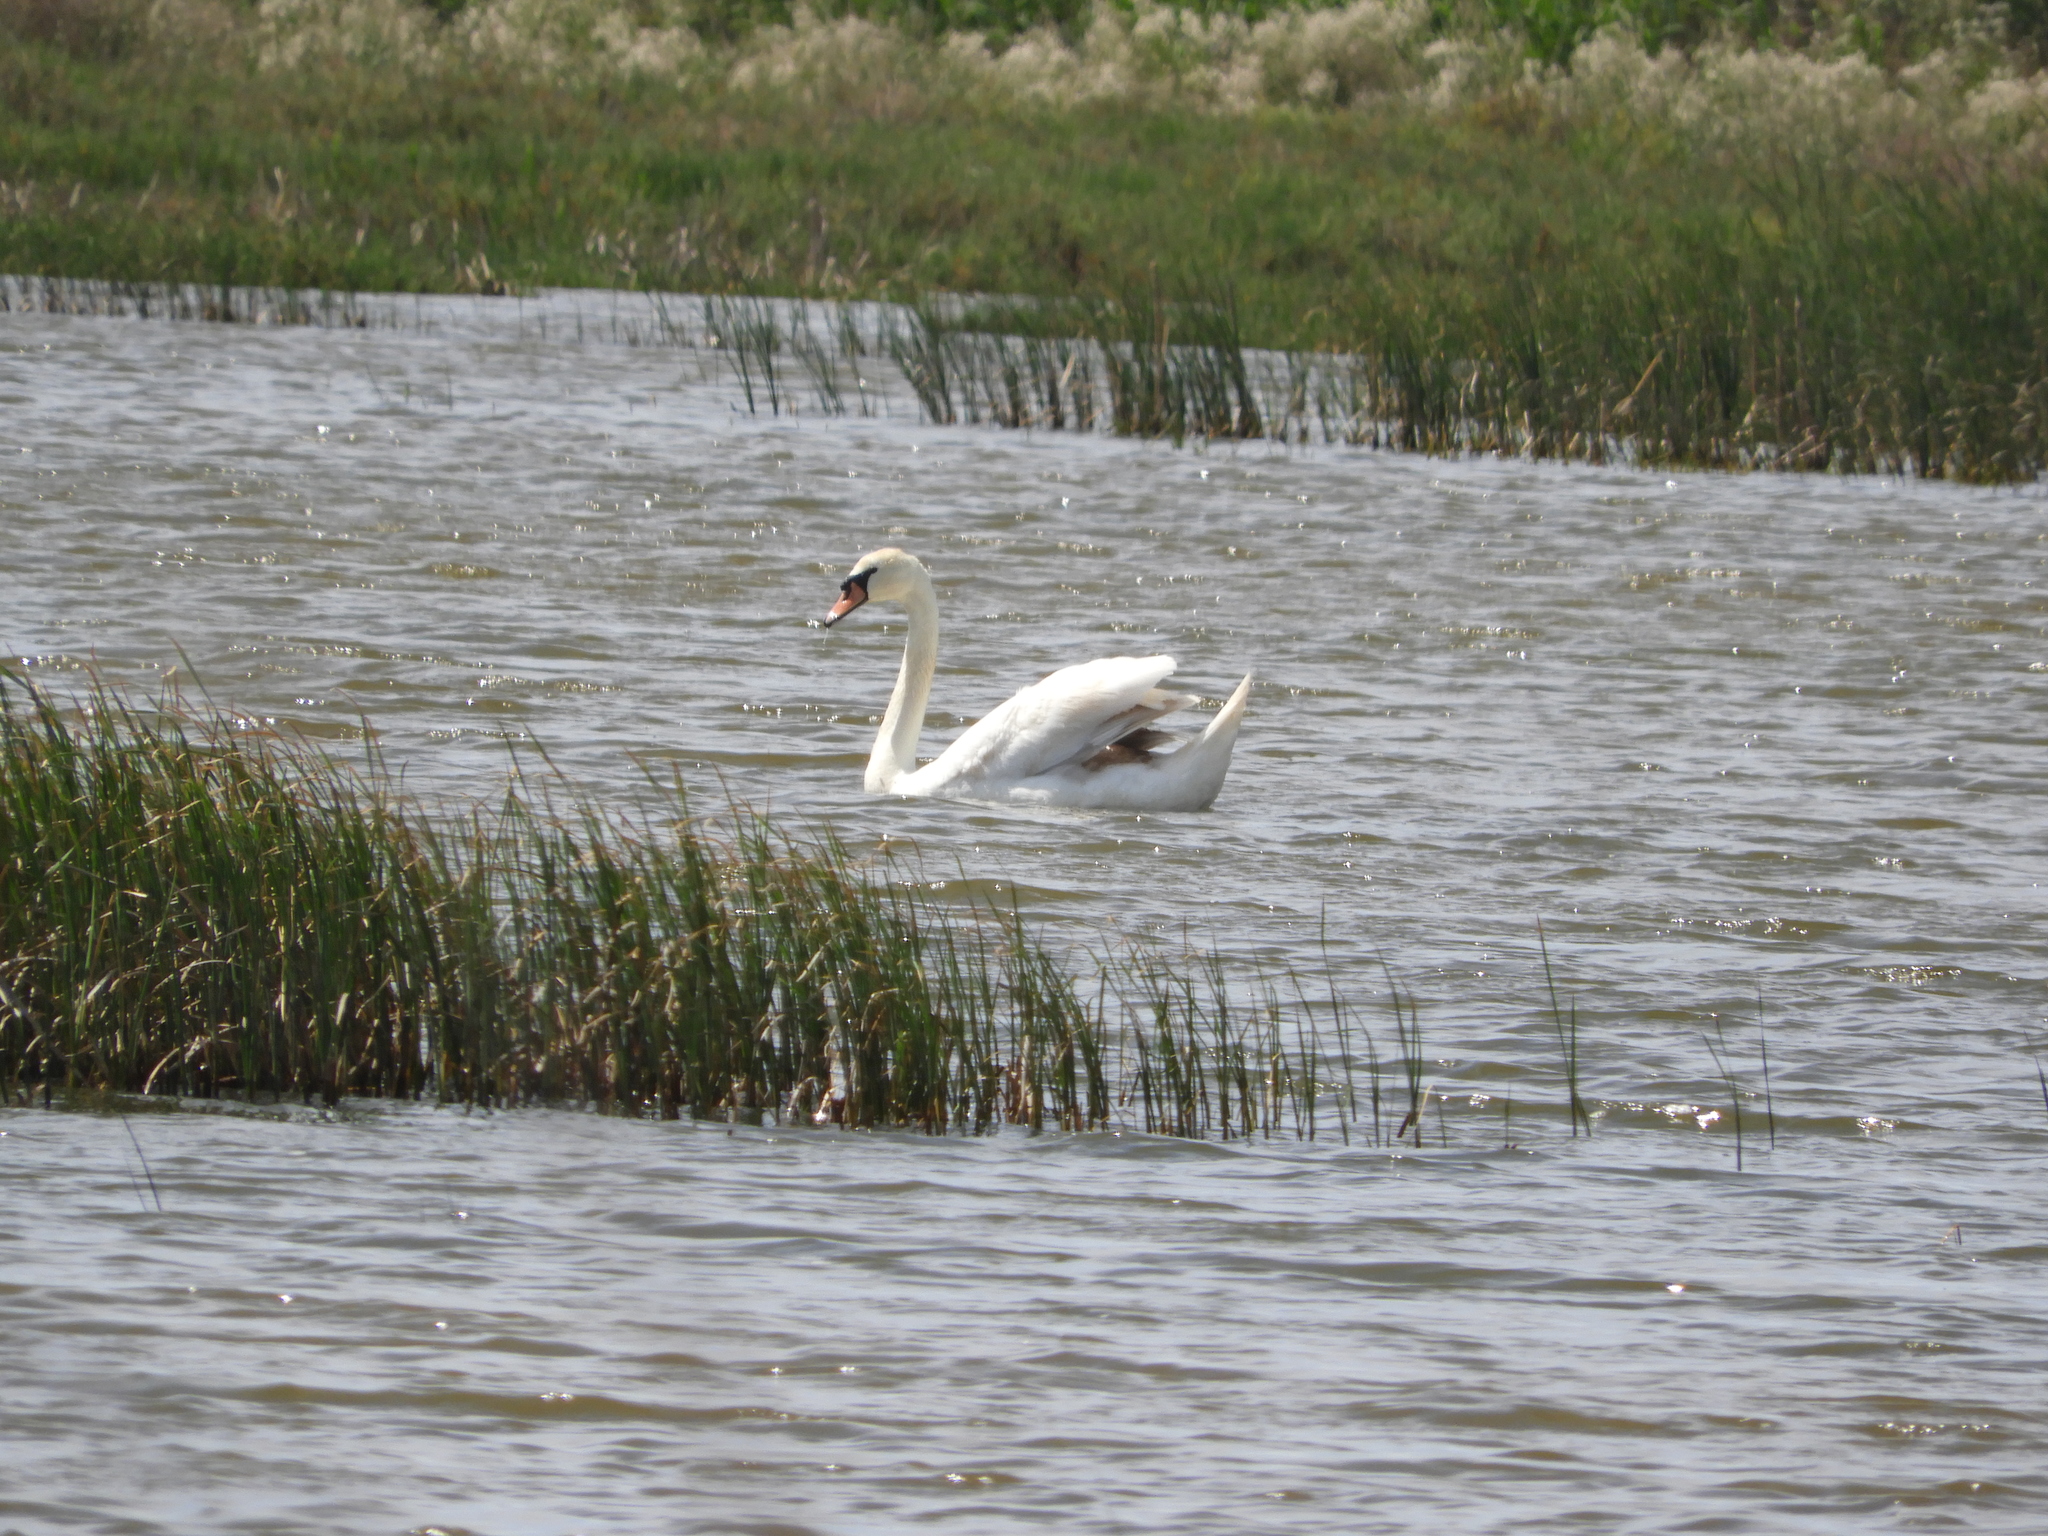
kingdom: Animalia
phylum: Chordata
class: Aves
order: Anseriformes
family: Anatidae
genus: Cygnus
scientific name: Cygnus olor
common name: Mute swan
